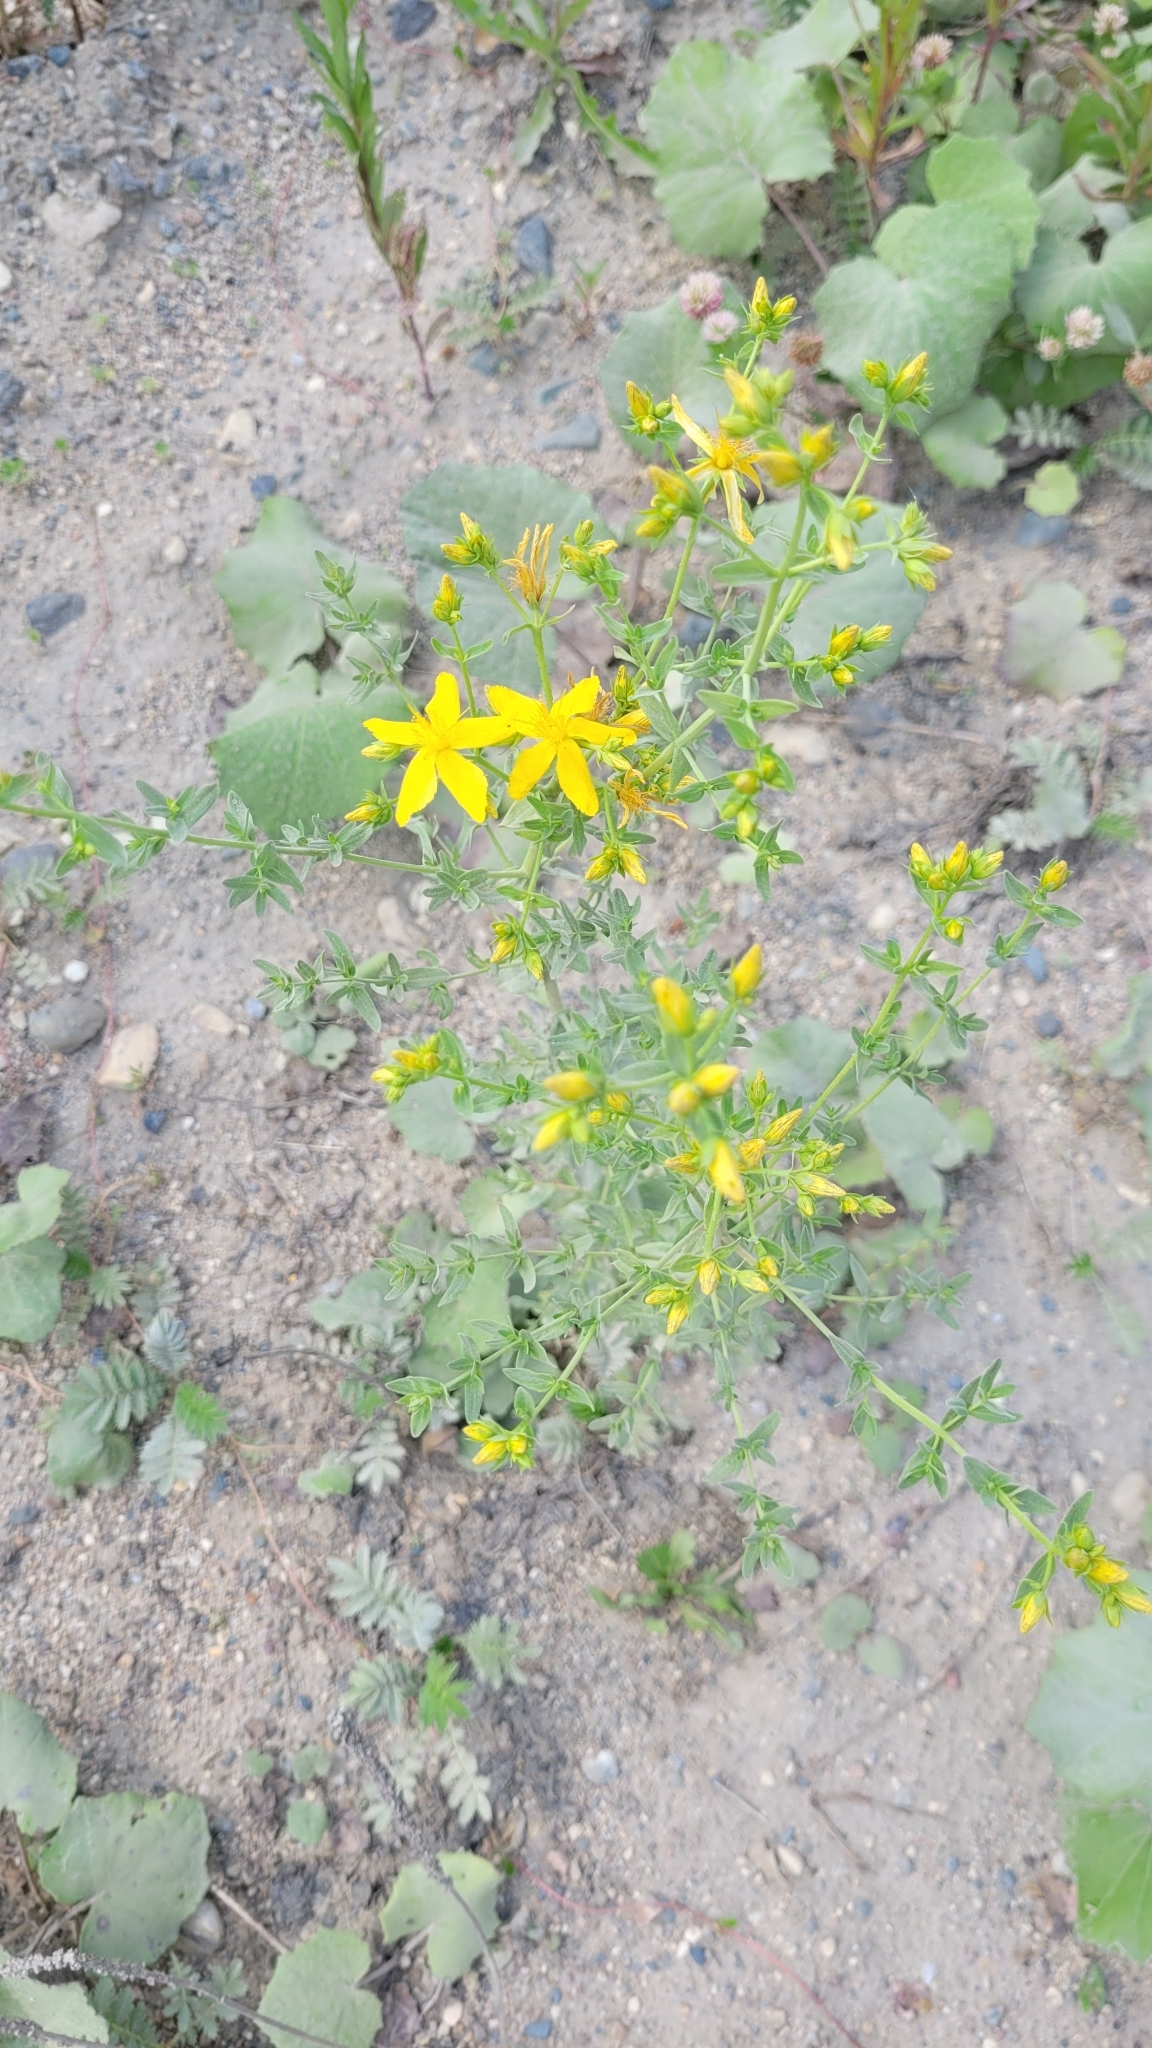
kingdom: Plantae
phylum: Tracheophyta
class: Magnoliopsida
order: Malpighiales
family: Hypericaceae
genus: Hypericum
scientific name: Hypericum perforatum
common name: Common st. johnswort
